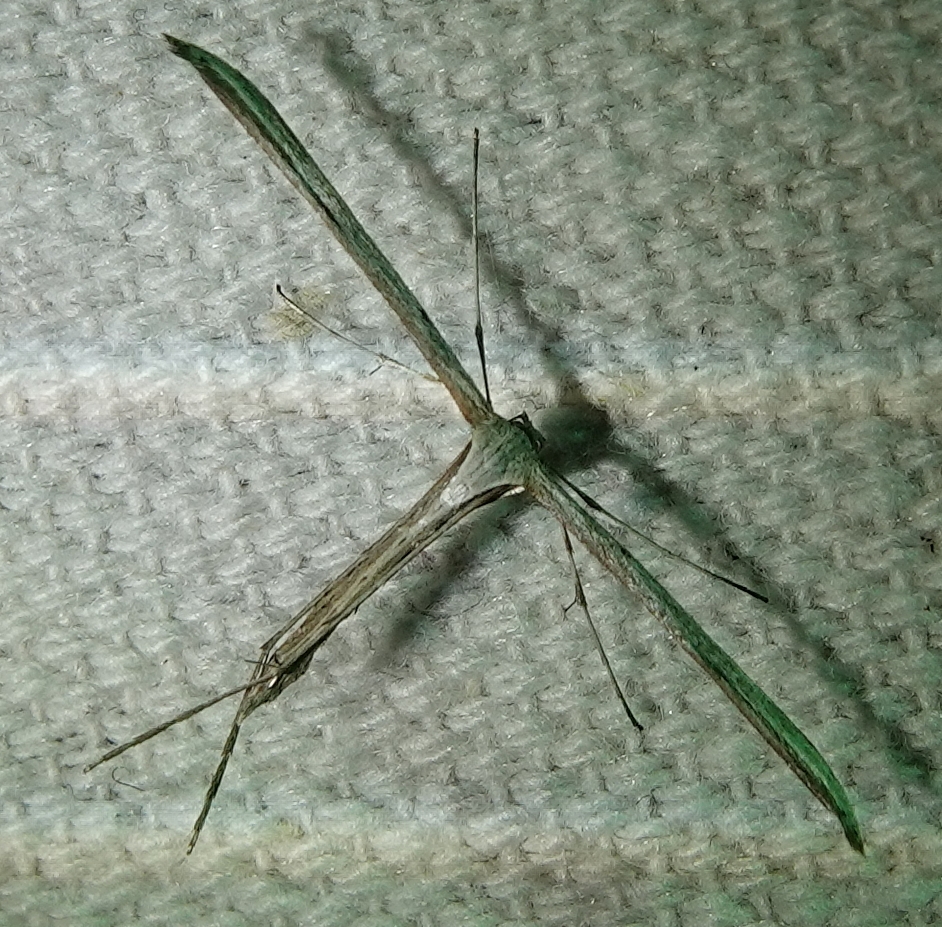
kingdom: Animalia
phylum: Arthropoda
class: Insecta
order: Lepidoptera
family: Pterophoridae
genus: Emmelina
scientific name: Emmelina monodactyla
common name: Common plume
